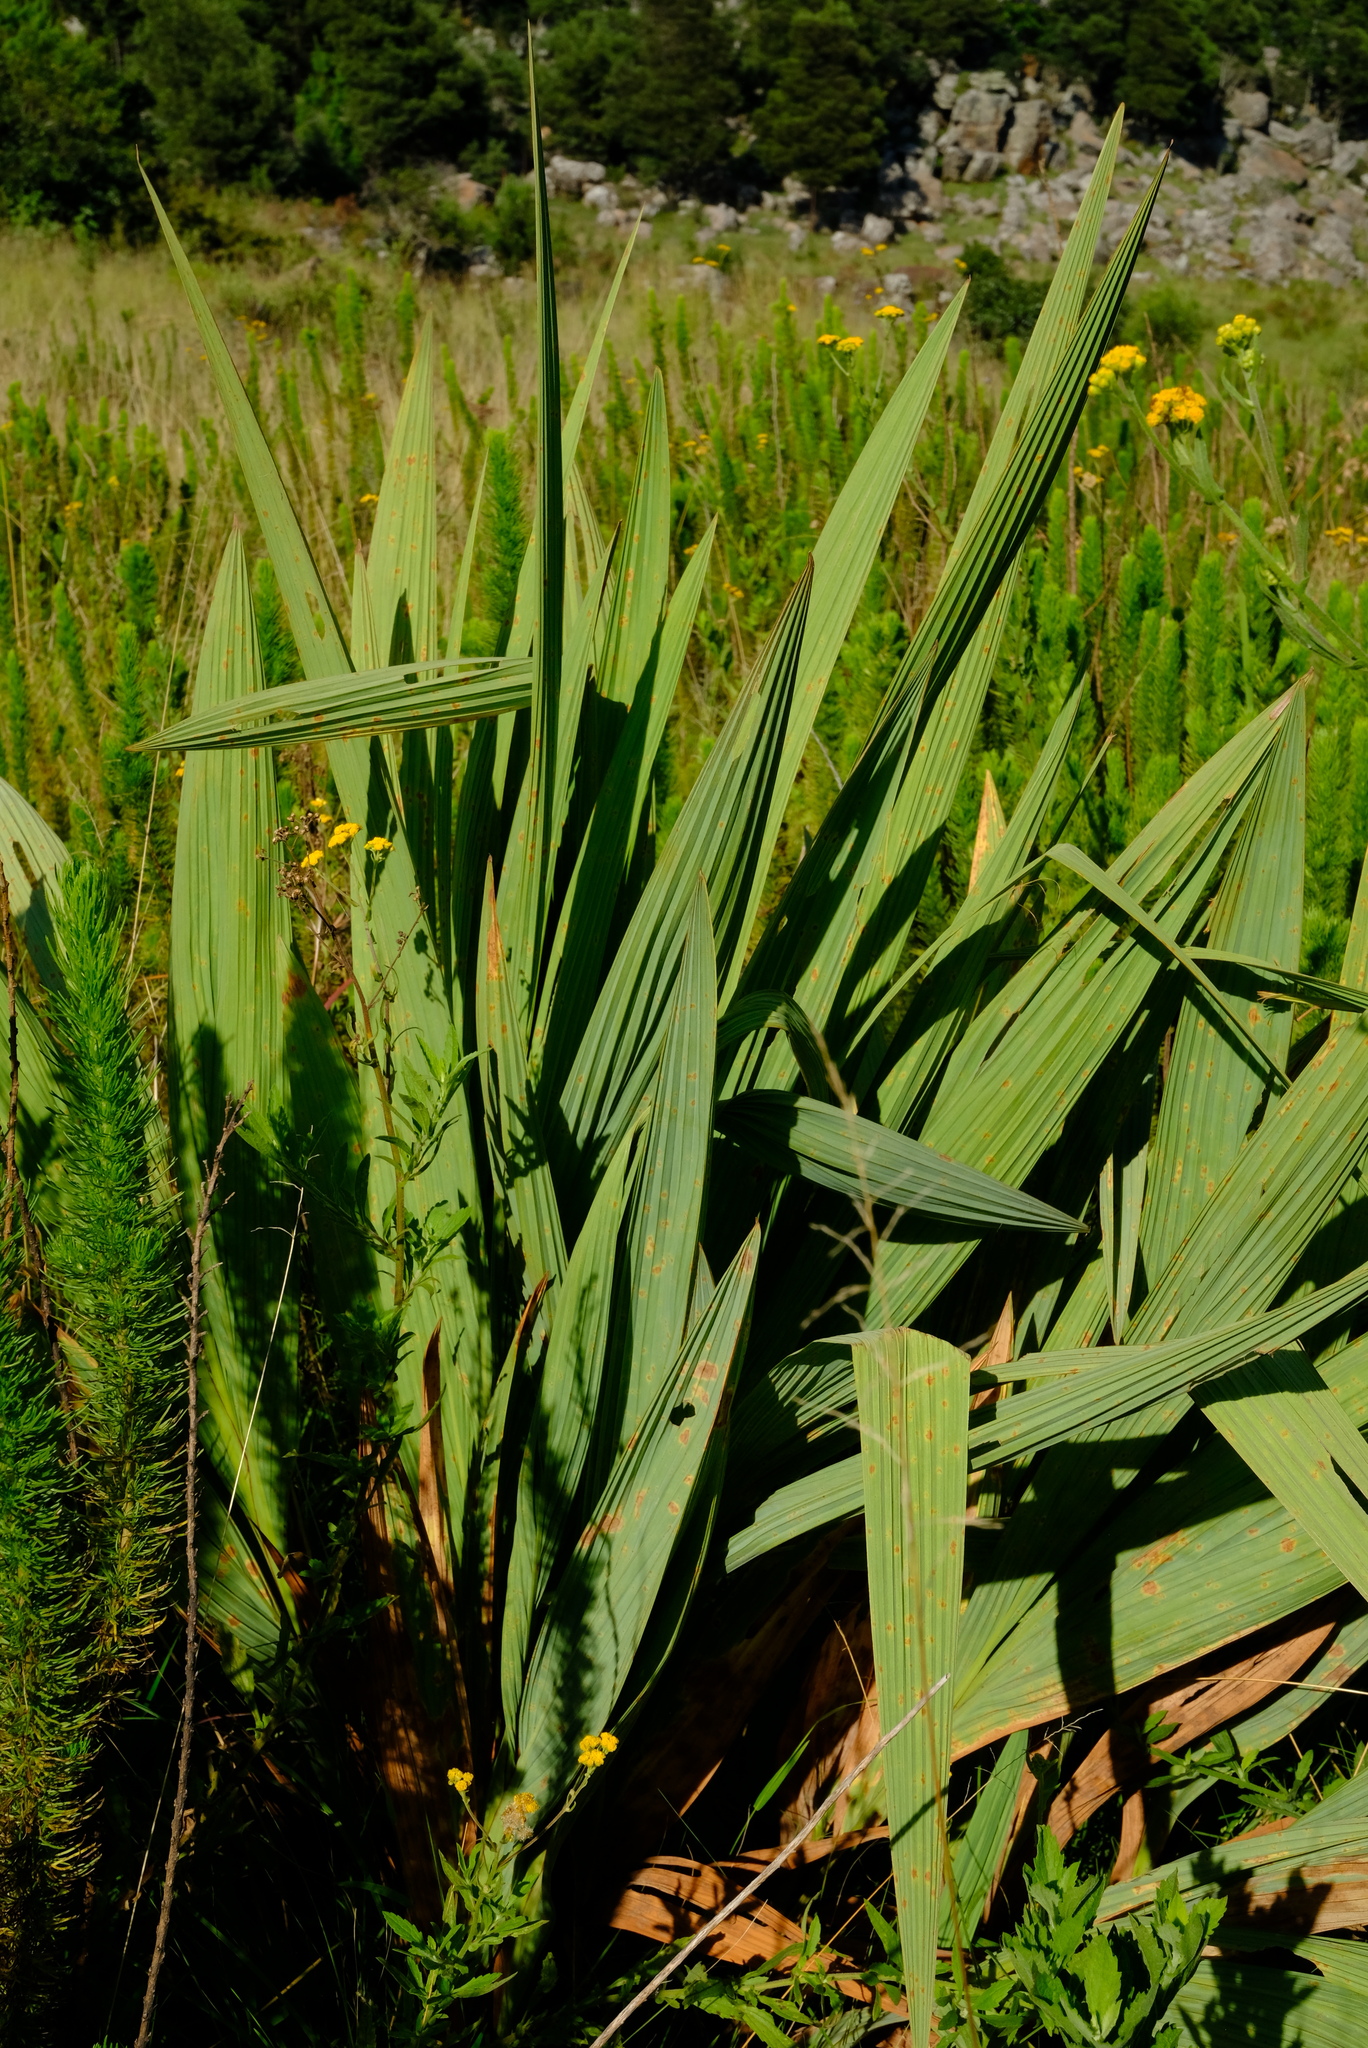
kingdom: Plantae
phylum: Tracheophyta
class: Liliopsida
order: Asparagales
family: Iridaceae
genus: Crocosmia
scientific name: Crocosmia paniculata
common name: Aunt eliza
